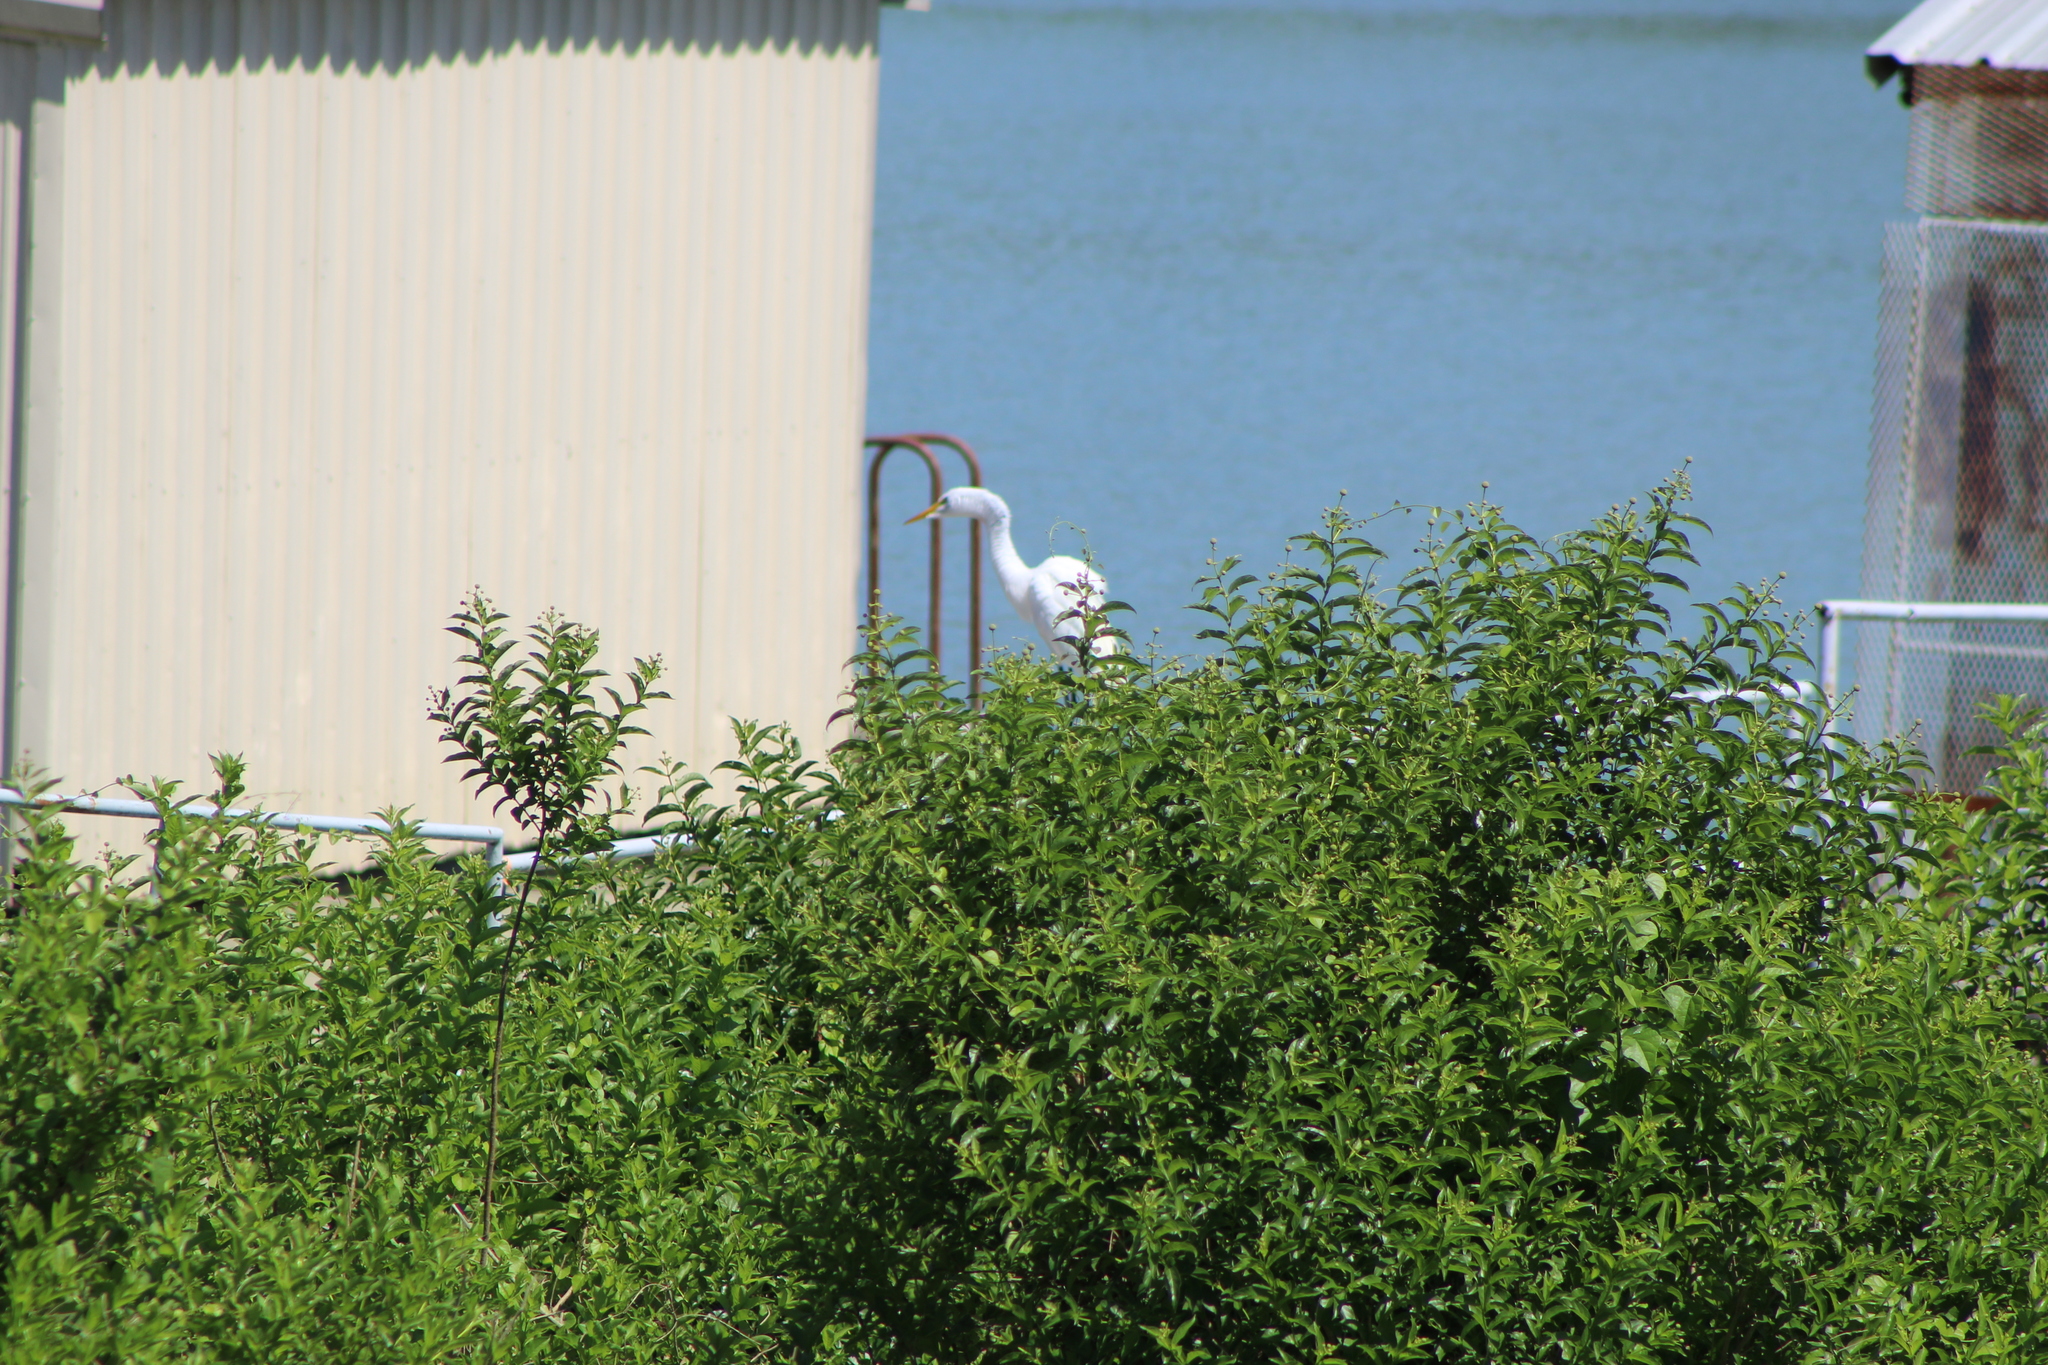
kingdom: Animalia
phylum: Chordata
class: Aves
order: Pelecaniformes
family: Ardeidae
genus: Ardea
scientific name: Ardea alba
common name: Great egret
